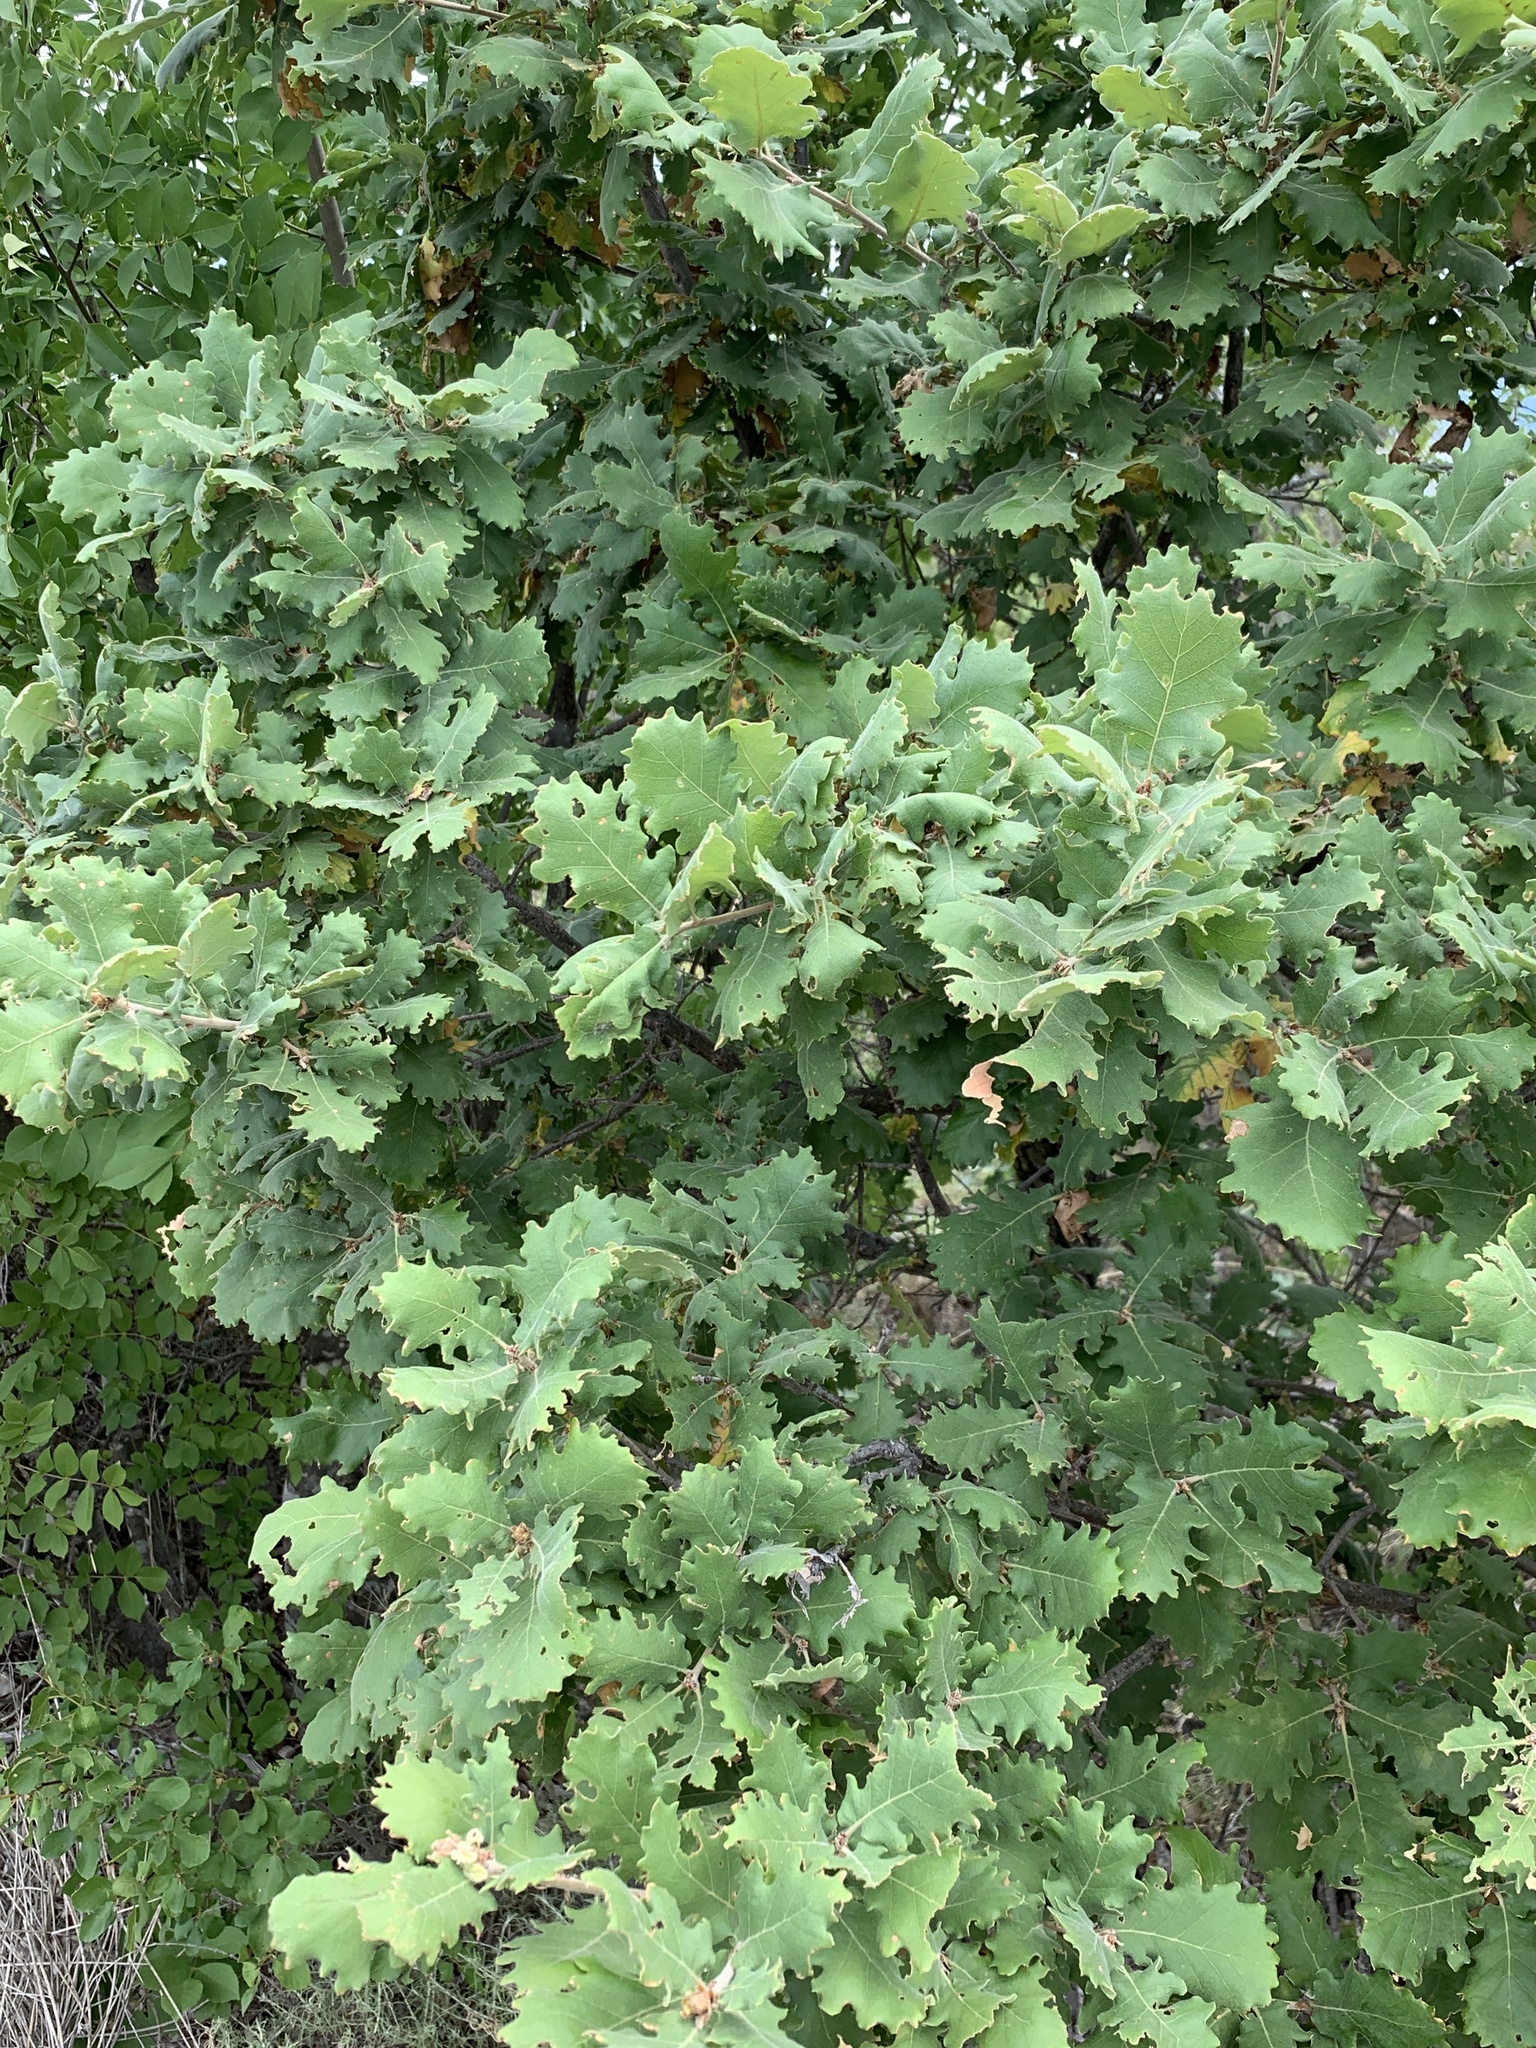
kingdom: Plantae
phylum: Tracheophyta
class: Magnoliopsida
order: Fagales
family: Fagaceae
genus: Quercus
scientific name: Quercus pubescens
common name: Downy oak
